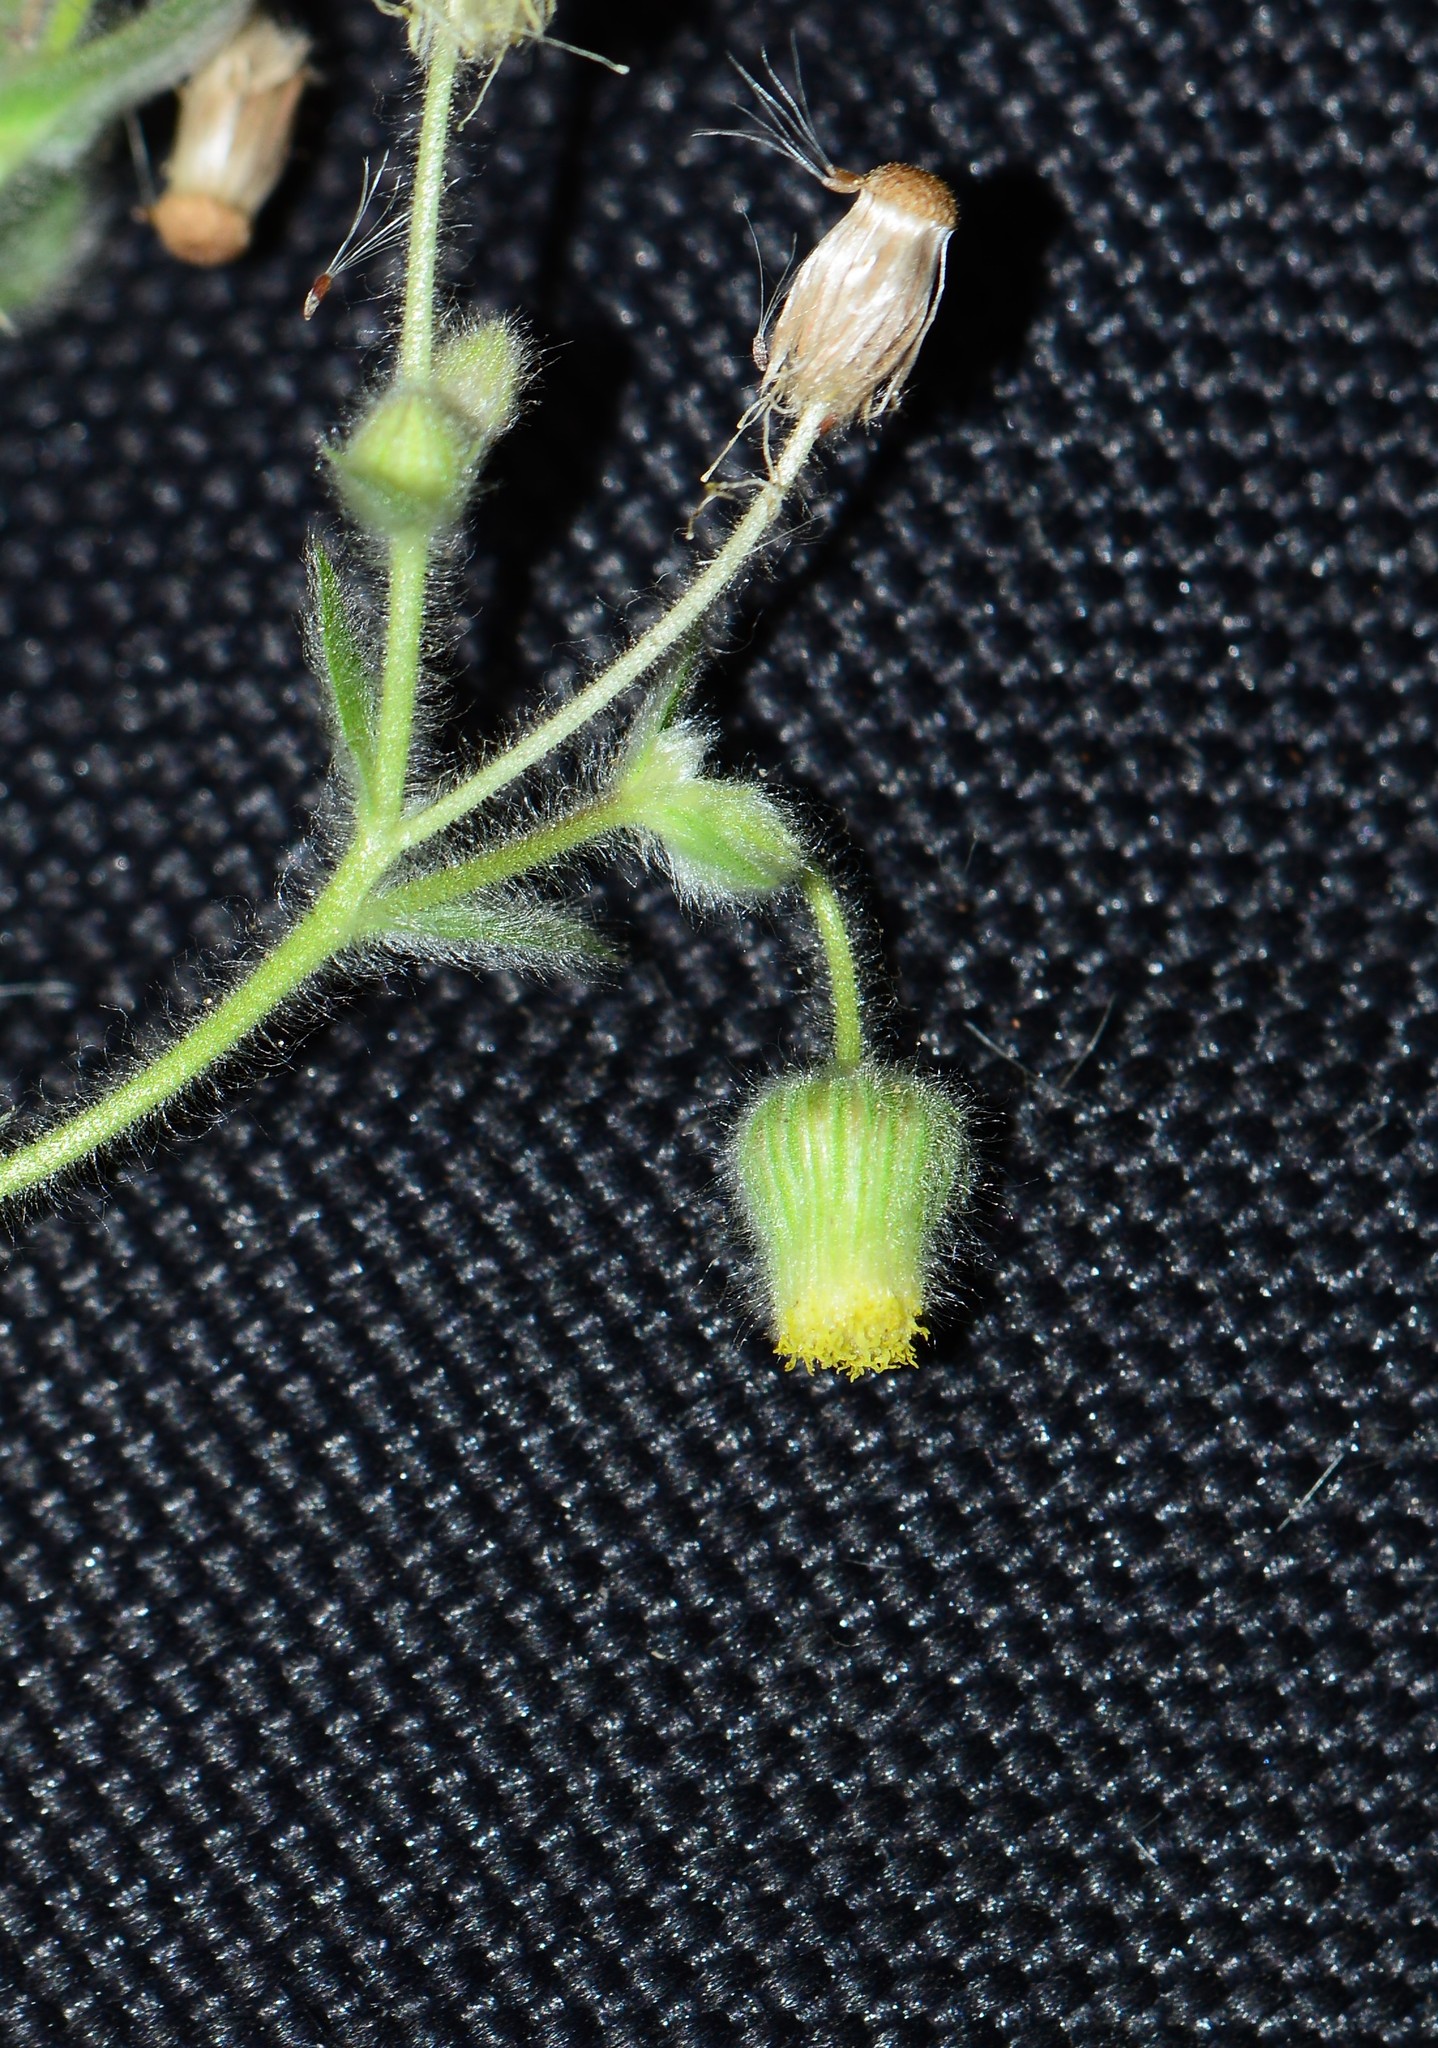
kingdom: Plantae
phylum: Tracheophyta
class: Magnoliopsida
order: Asterales
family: Asteraceae
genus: Blumea
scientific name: Blumea oxyodonta
